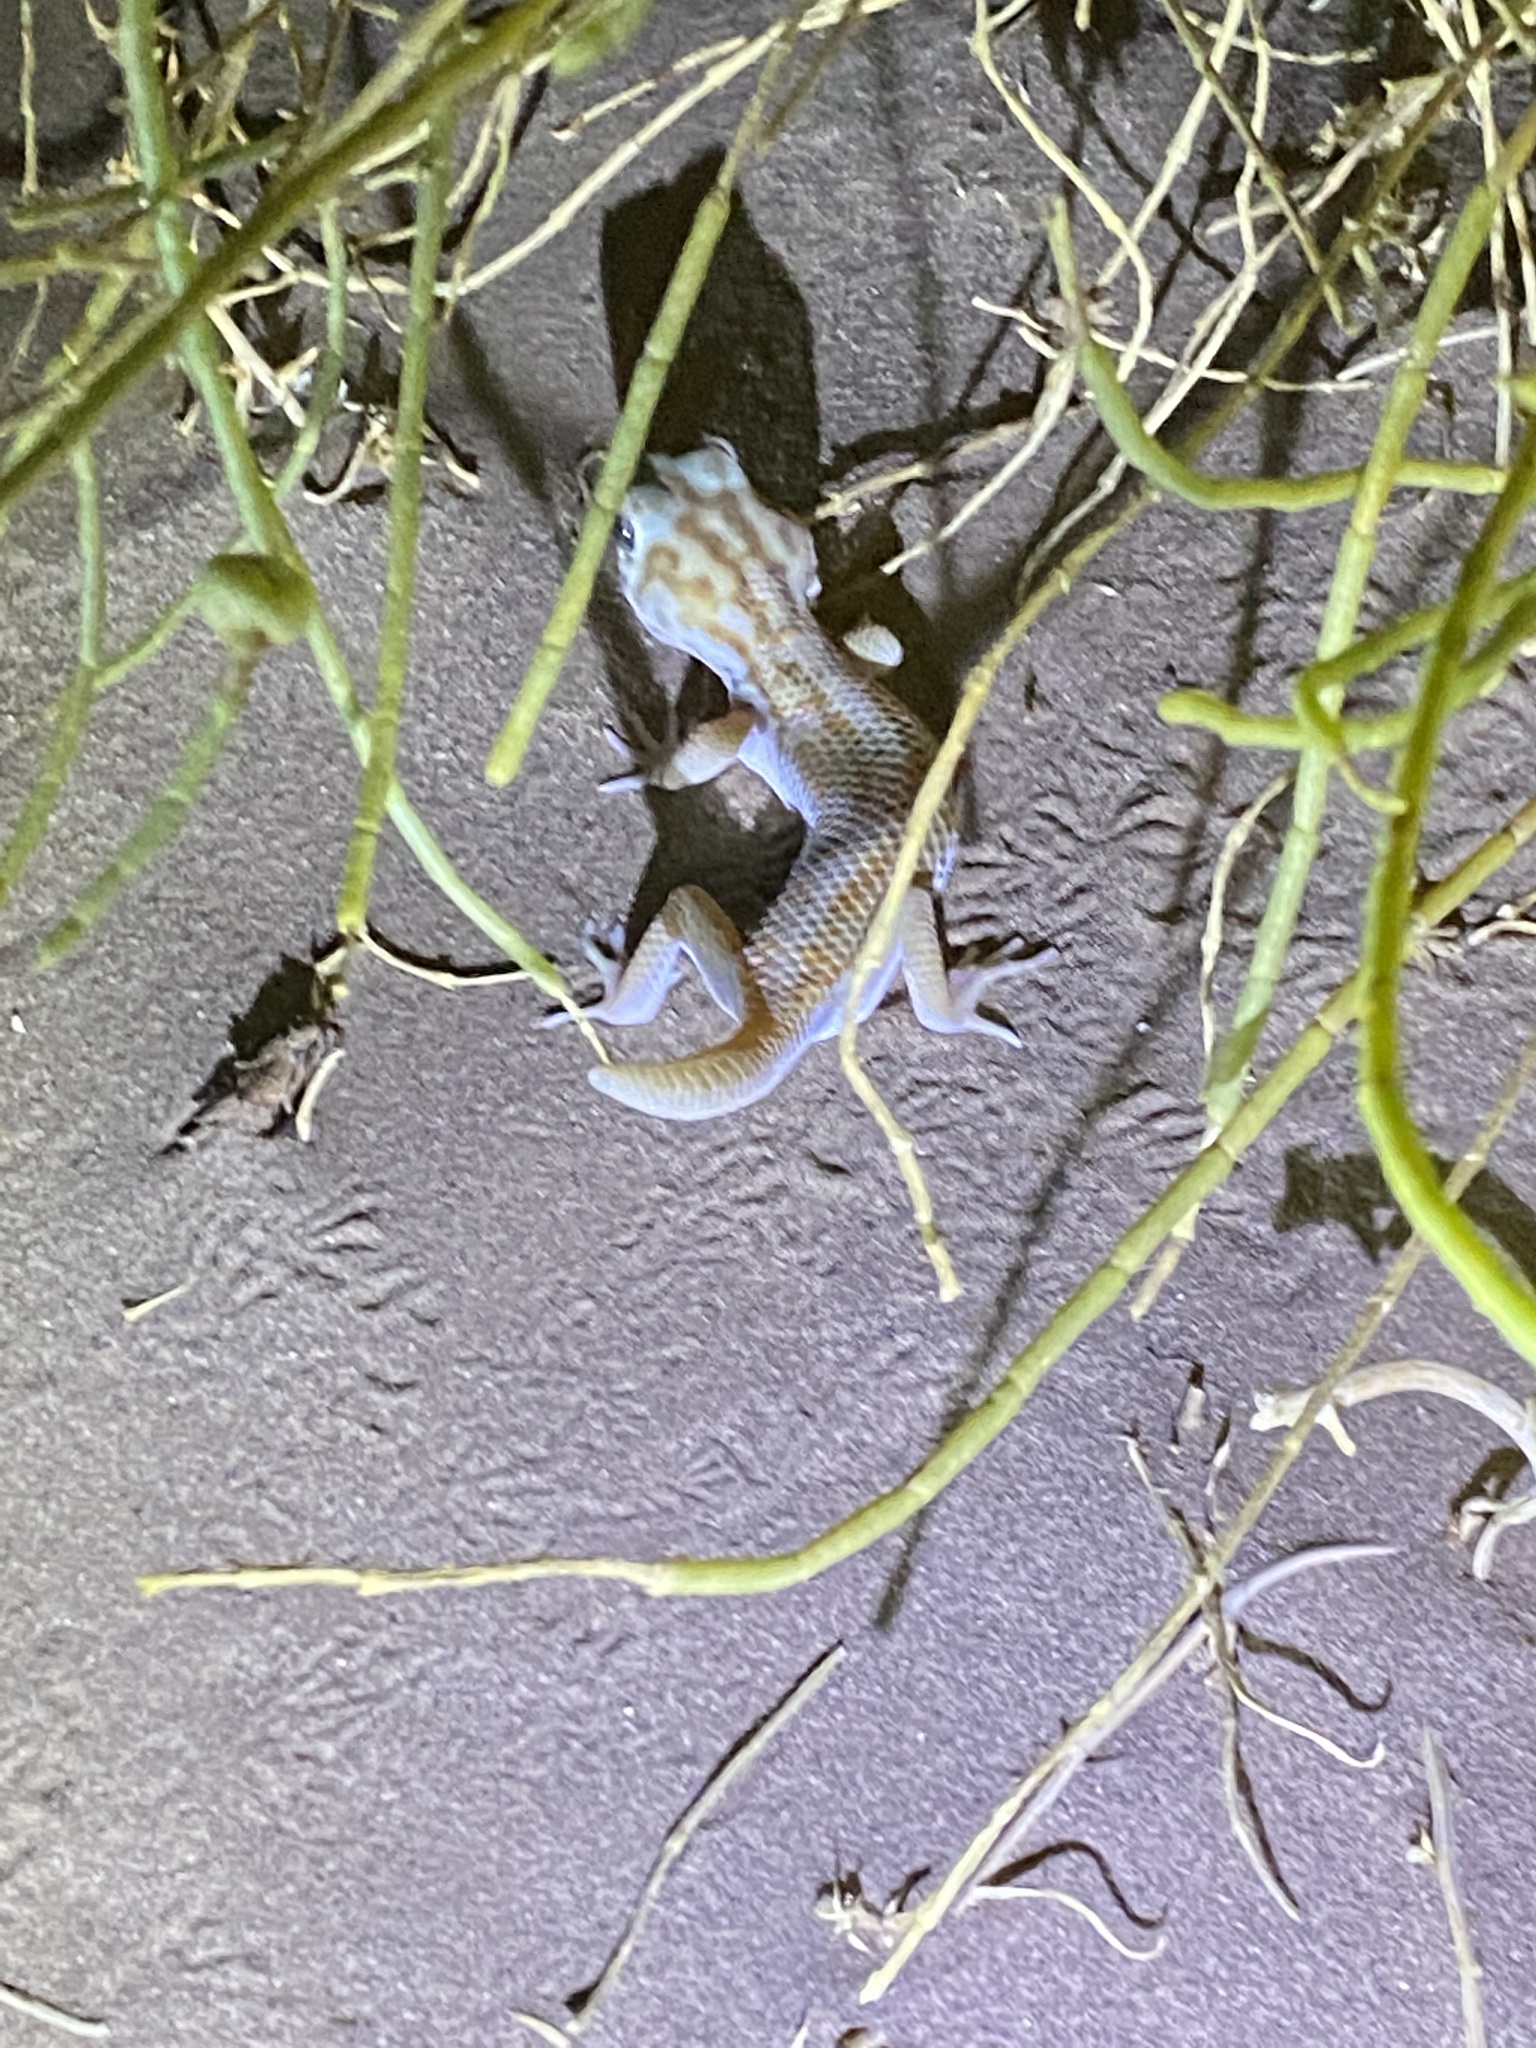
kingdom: Animalia
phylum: Chordata
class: Squamata
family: Sphaerodactylidae
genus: Teratoscincus
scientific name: Teratoscincus keyserlingii
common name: Frog-eyed gecko
